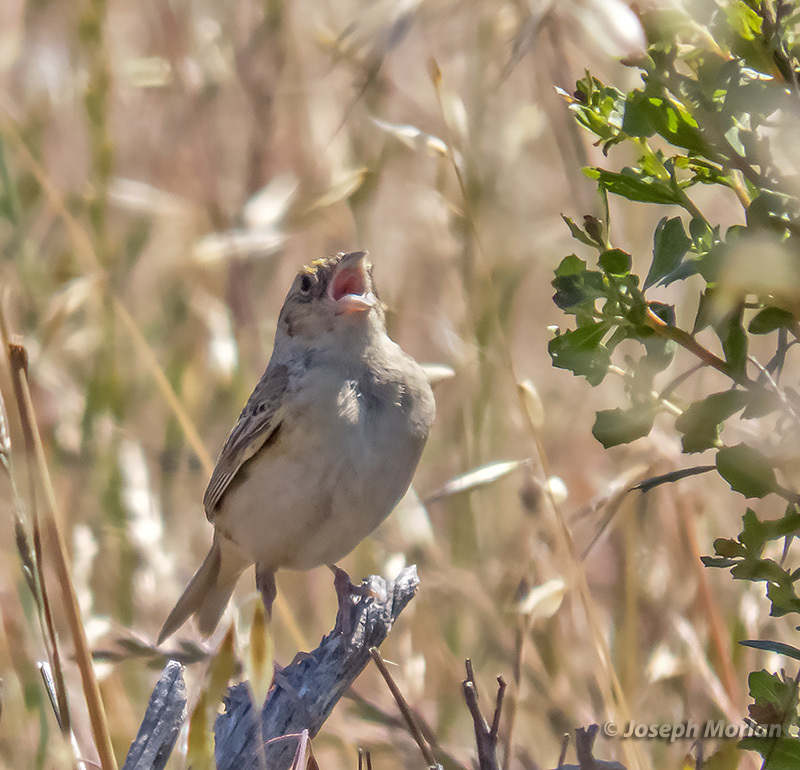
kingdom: Animalia
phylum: Chordata
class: Aves
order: Passeriformes
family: Passerellidae
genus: Ammodramus
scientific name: Ammodramus savannarum
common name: Grasshopper sparrow
